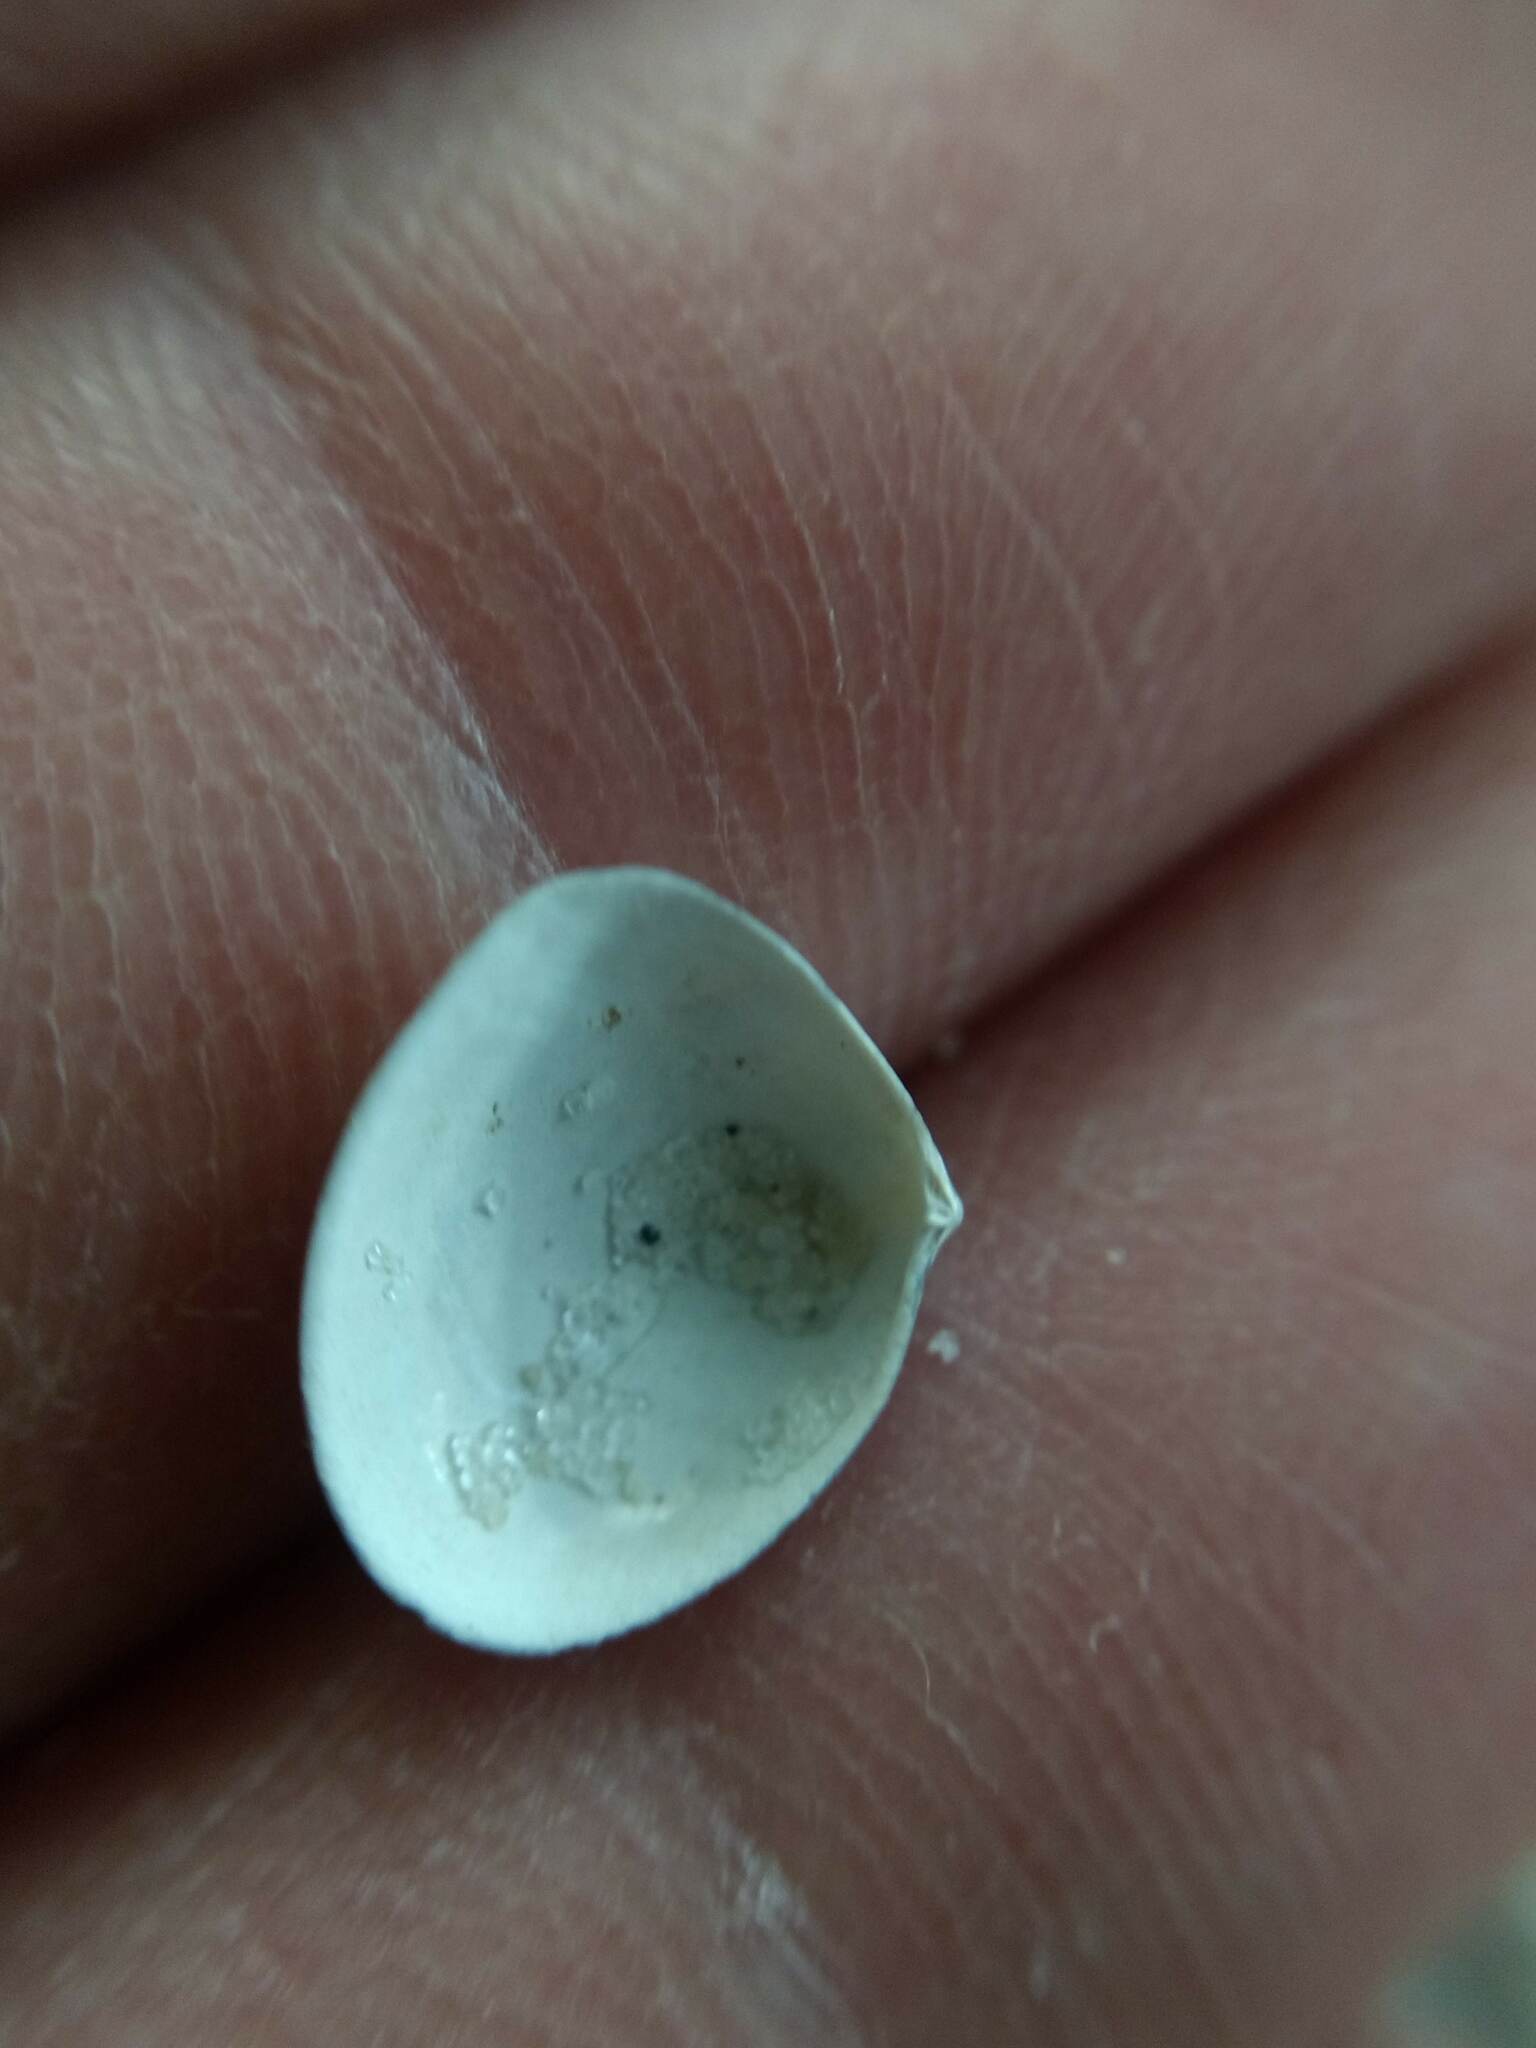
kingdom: Animalia
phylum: Mollusca
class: Bivalvia
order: Cardiida
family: Semelidae
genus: Abra
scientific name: Abra aequalis
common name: Common atlantic abra
